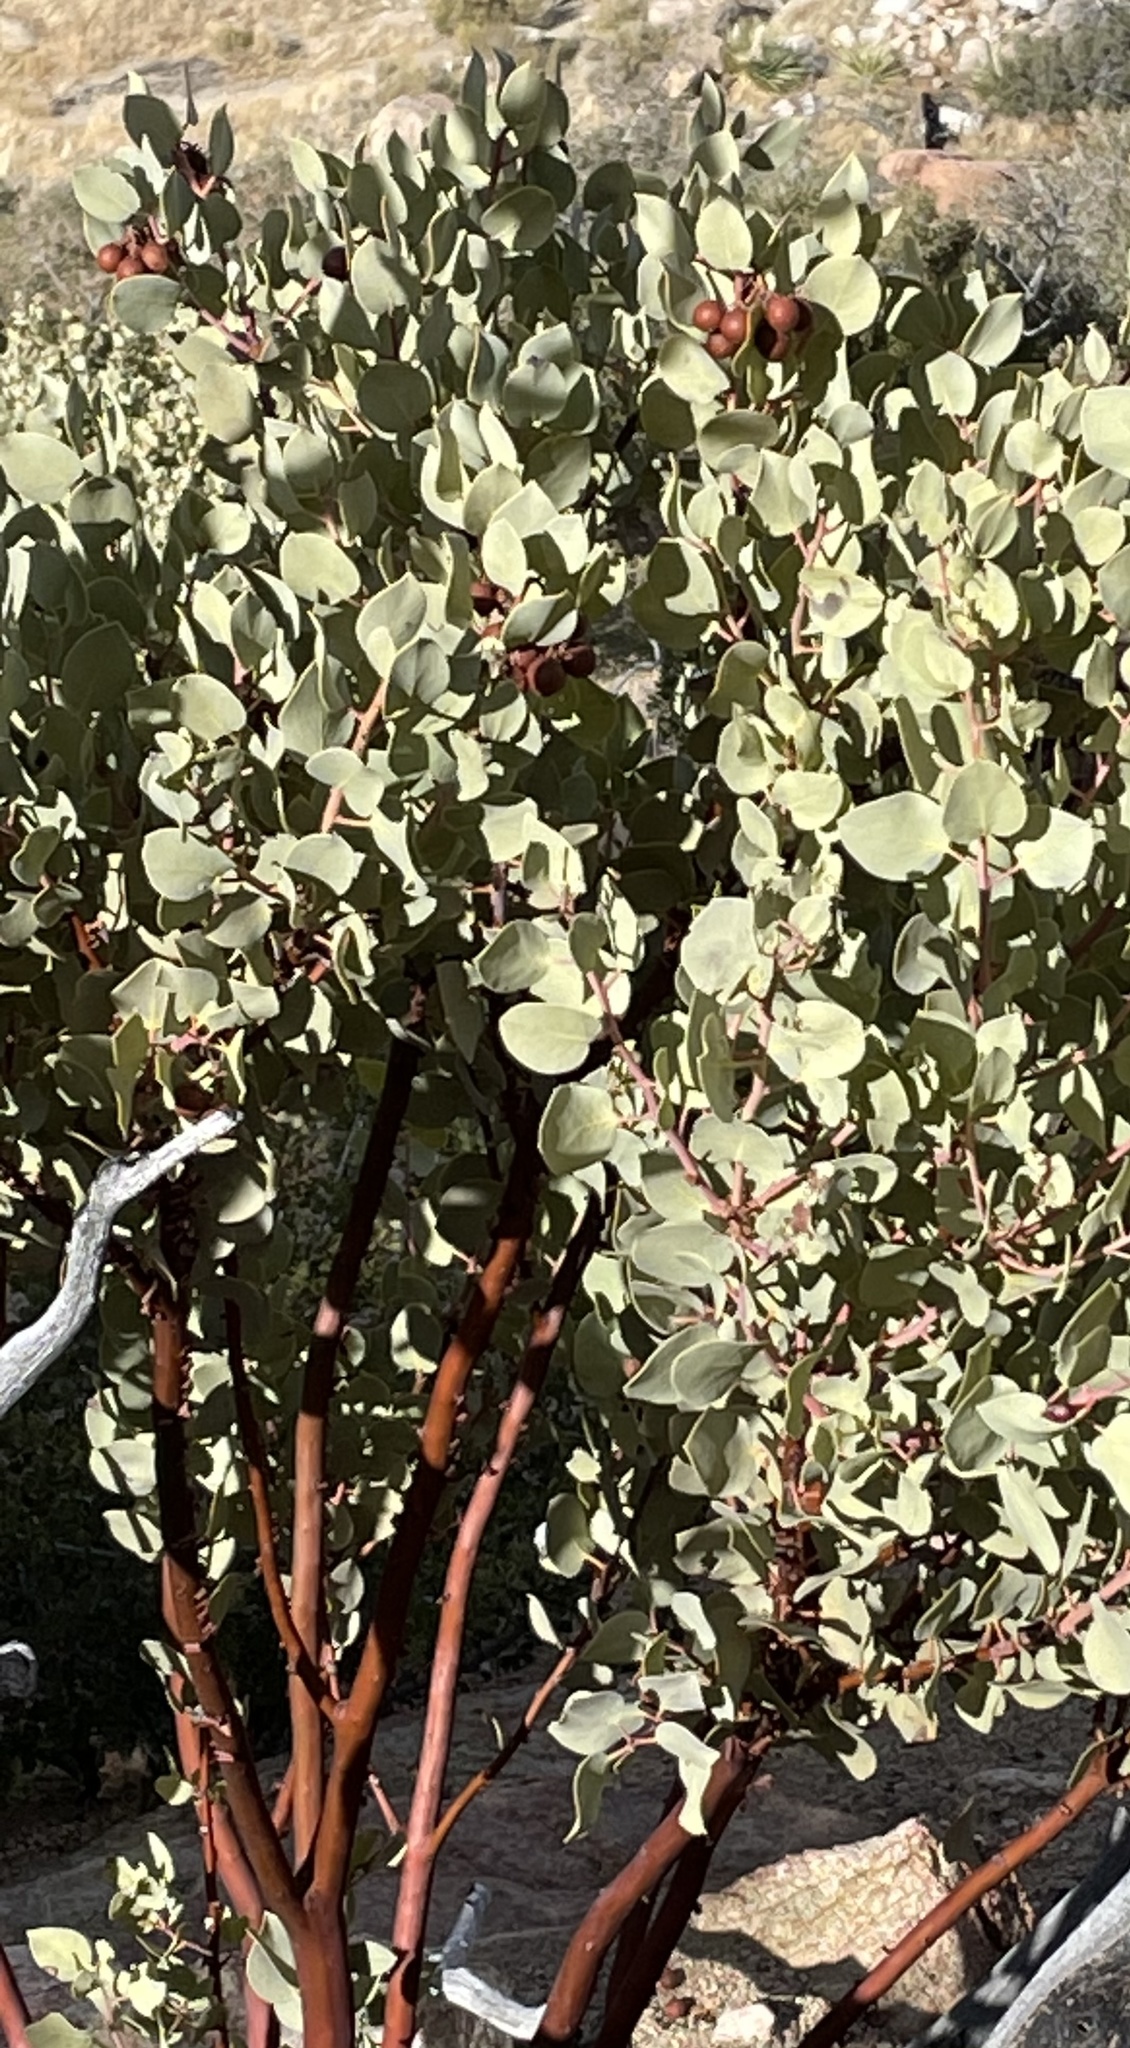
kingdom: Plantae
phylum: Tracheophyta
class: Magnoliopsida
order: Ericales
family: Ericaceae
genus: Arctostaphylos
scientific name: Arctostaphylos glauca
